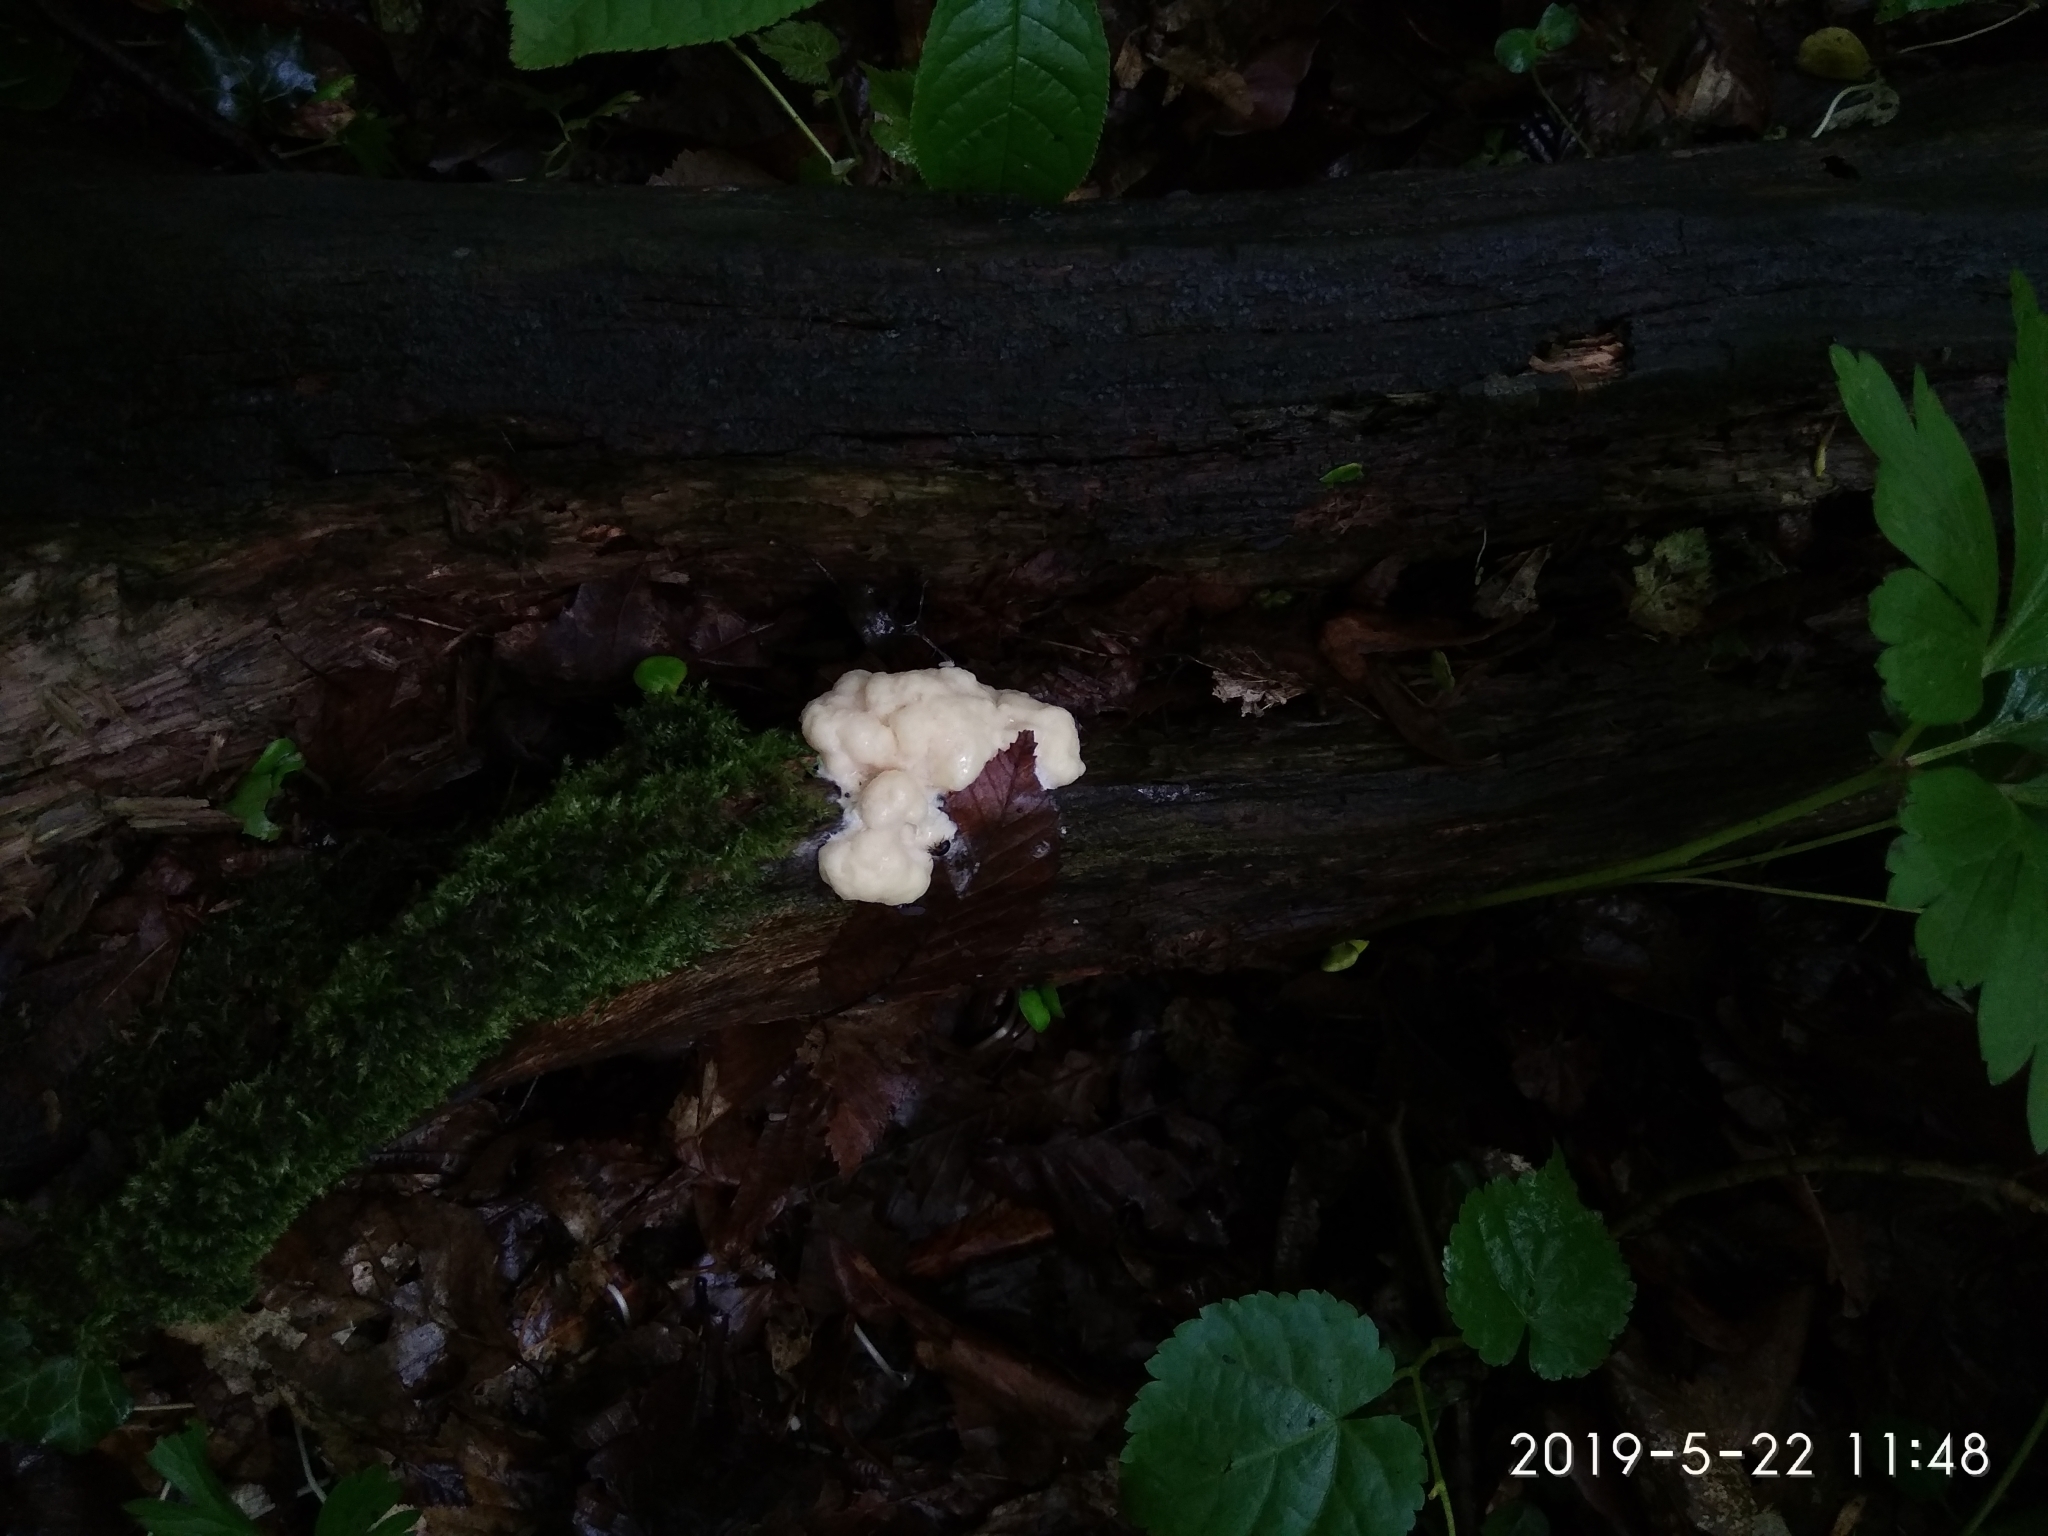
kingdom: Protozoa
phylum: Mycetozoa
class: Myxomycetes
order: Cribrariales
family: Tubiferaceae
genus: Reticularia
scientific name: Reticularia lycoperdon
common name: False puffball
